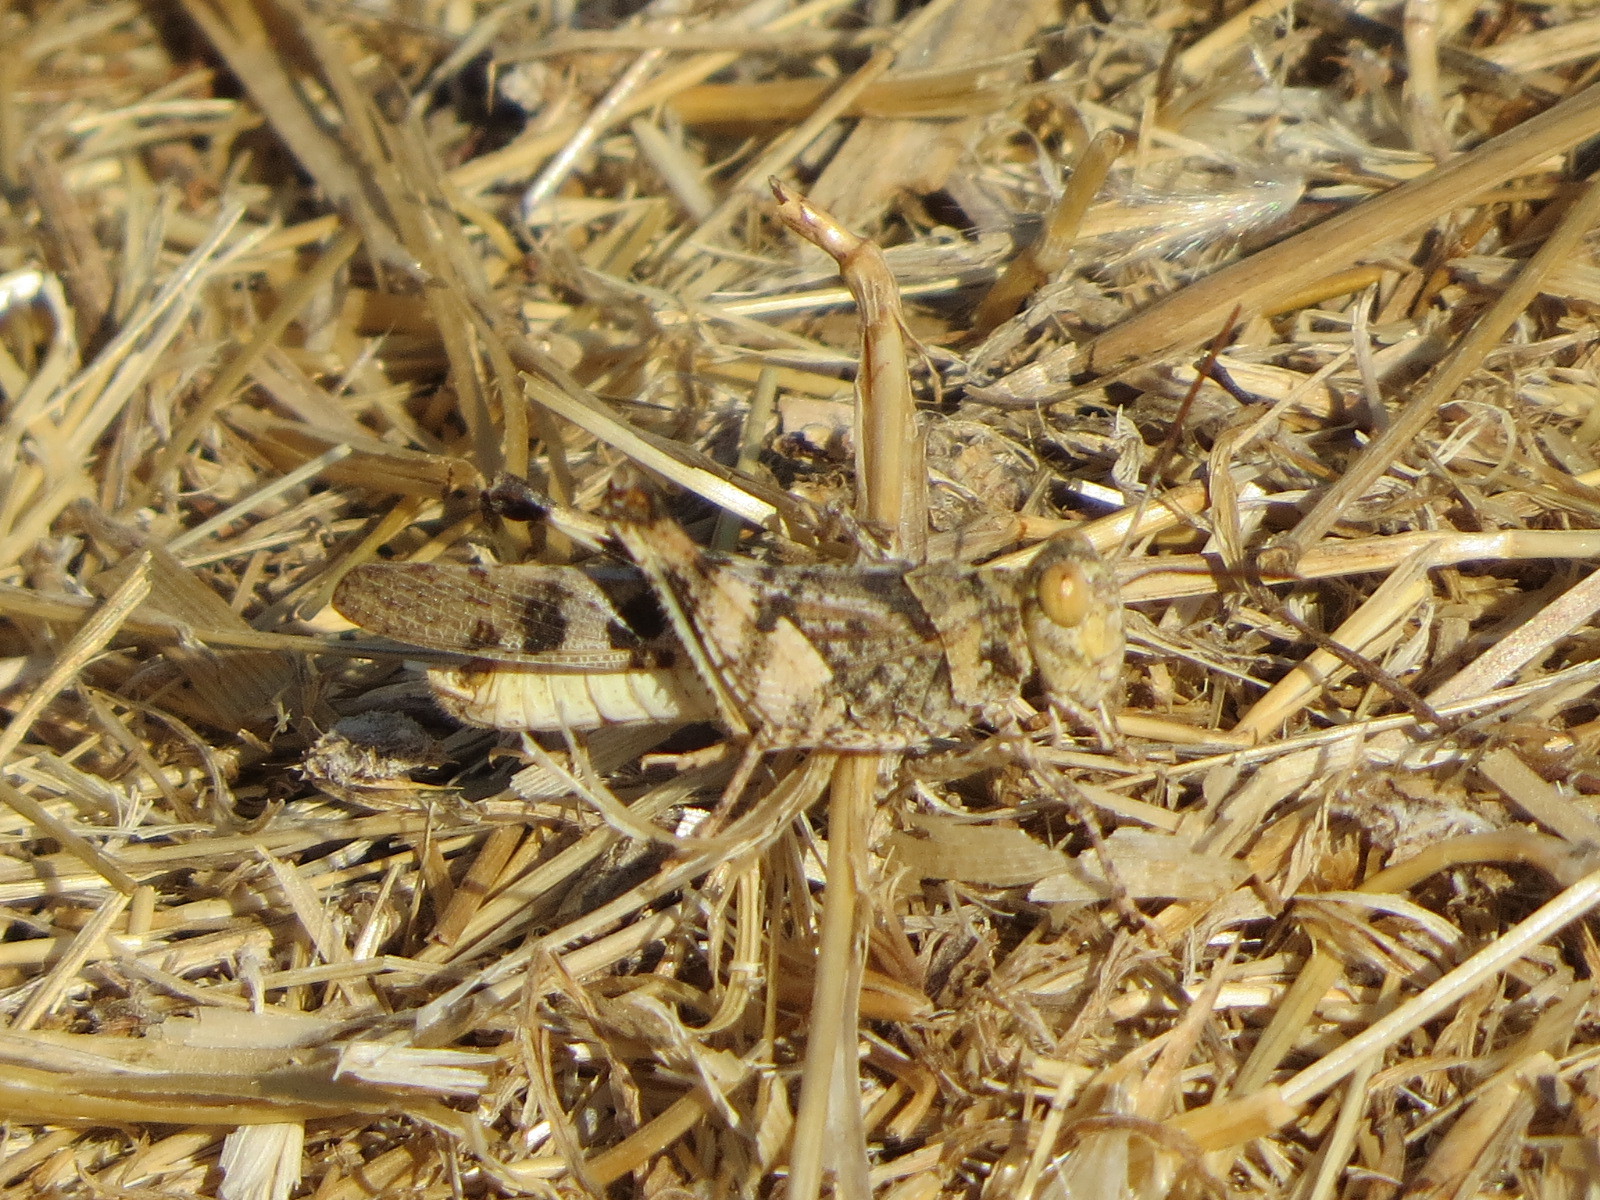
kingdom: Animalia
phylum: Arthropoda
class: Insecta
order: Orthoptera
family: Acrididae
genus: Dissosteira
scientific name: Dissosteira pictipennis
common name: California rose-winged grasshopper
